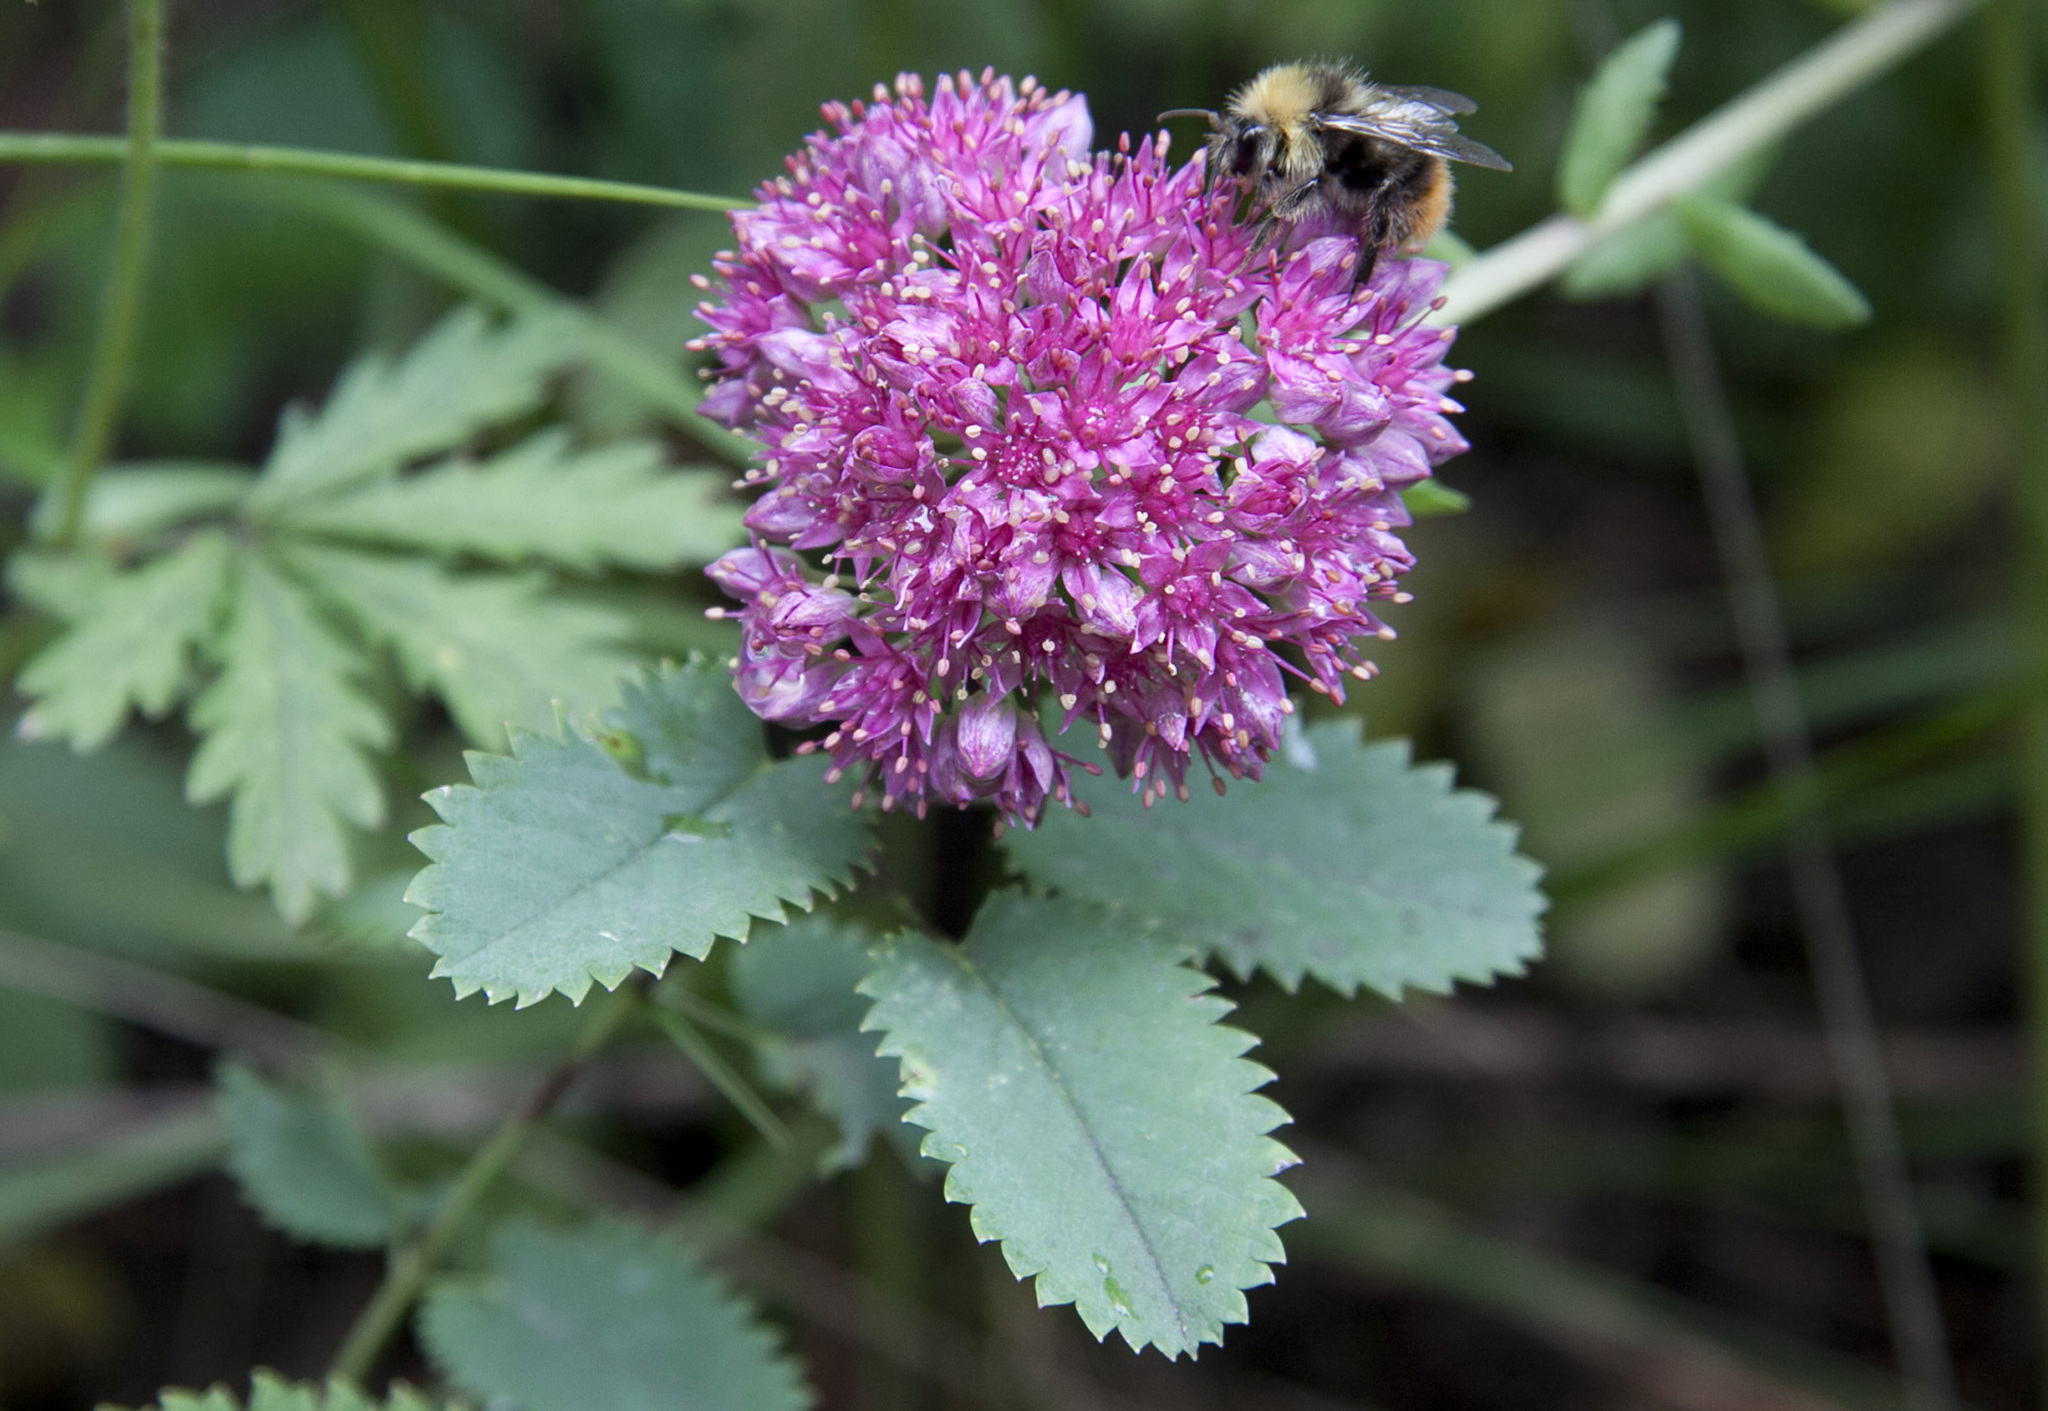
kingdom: Plantae
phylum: Tracheophyta
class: Magnoliopsida
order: Saxifragales
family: Crassulaceae
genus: Hylotelephium
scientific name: Hylotelephium telephium
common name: Live-forever
